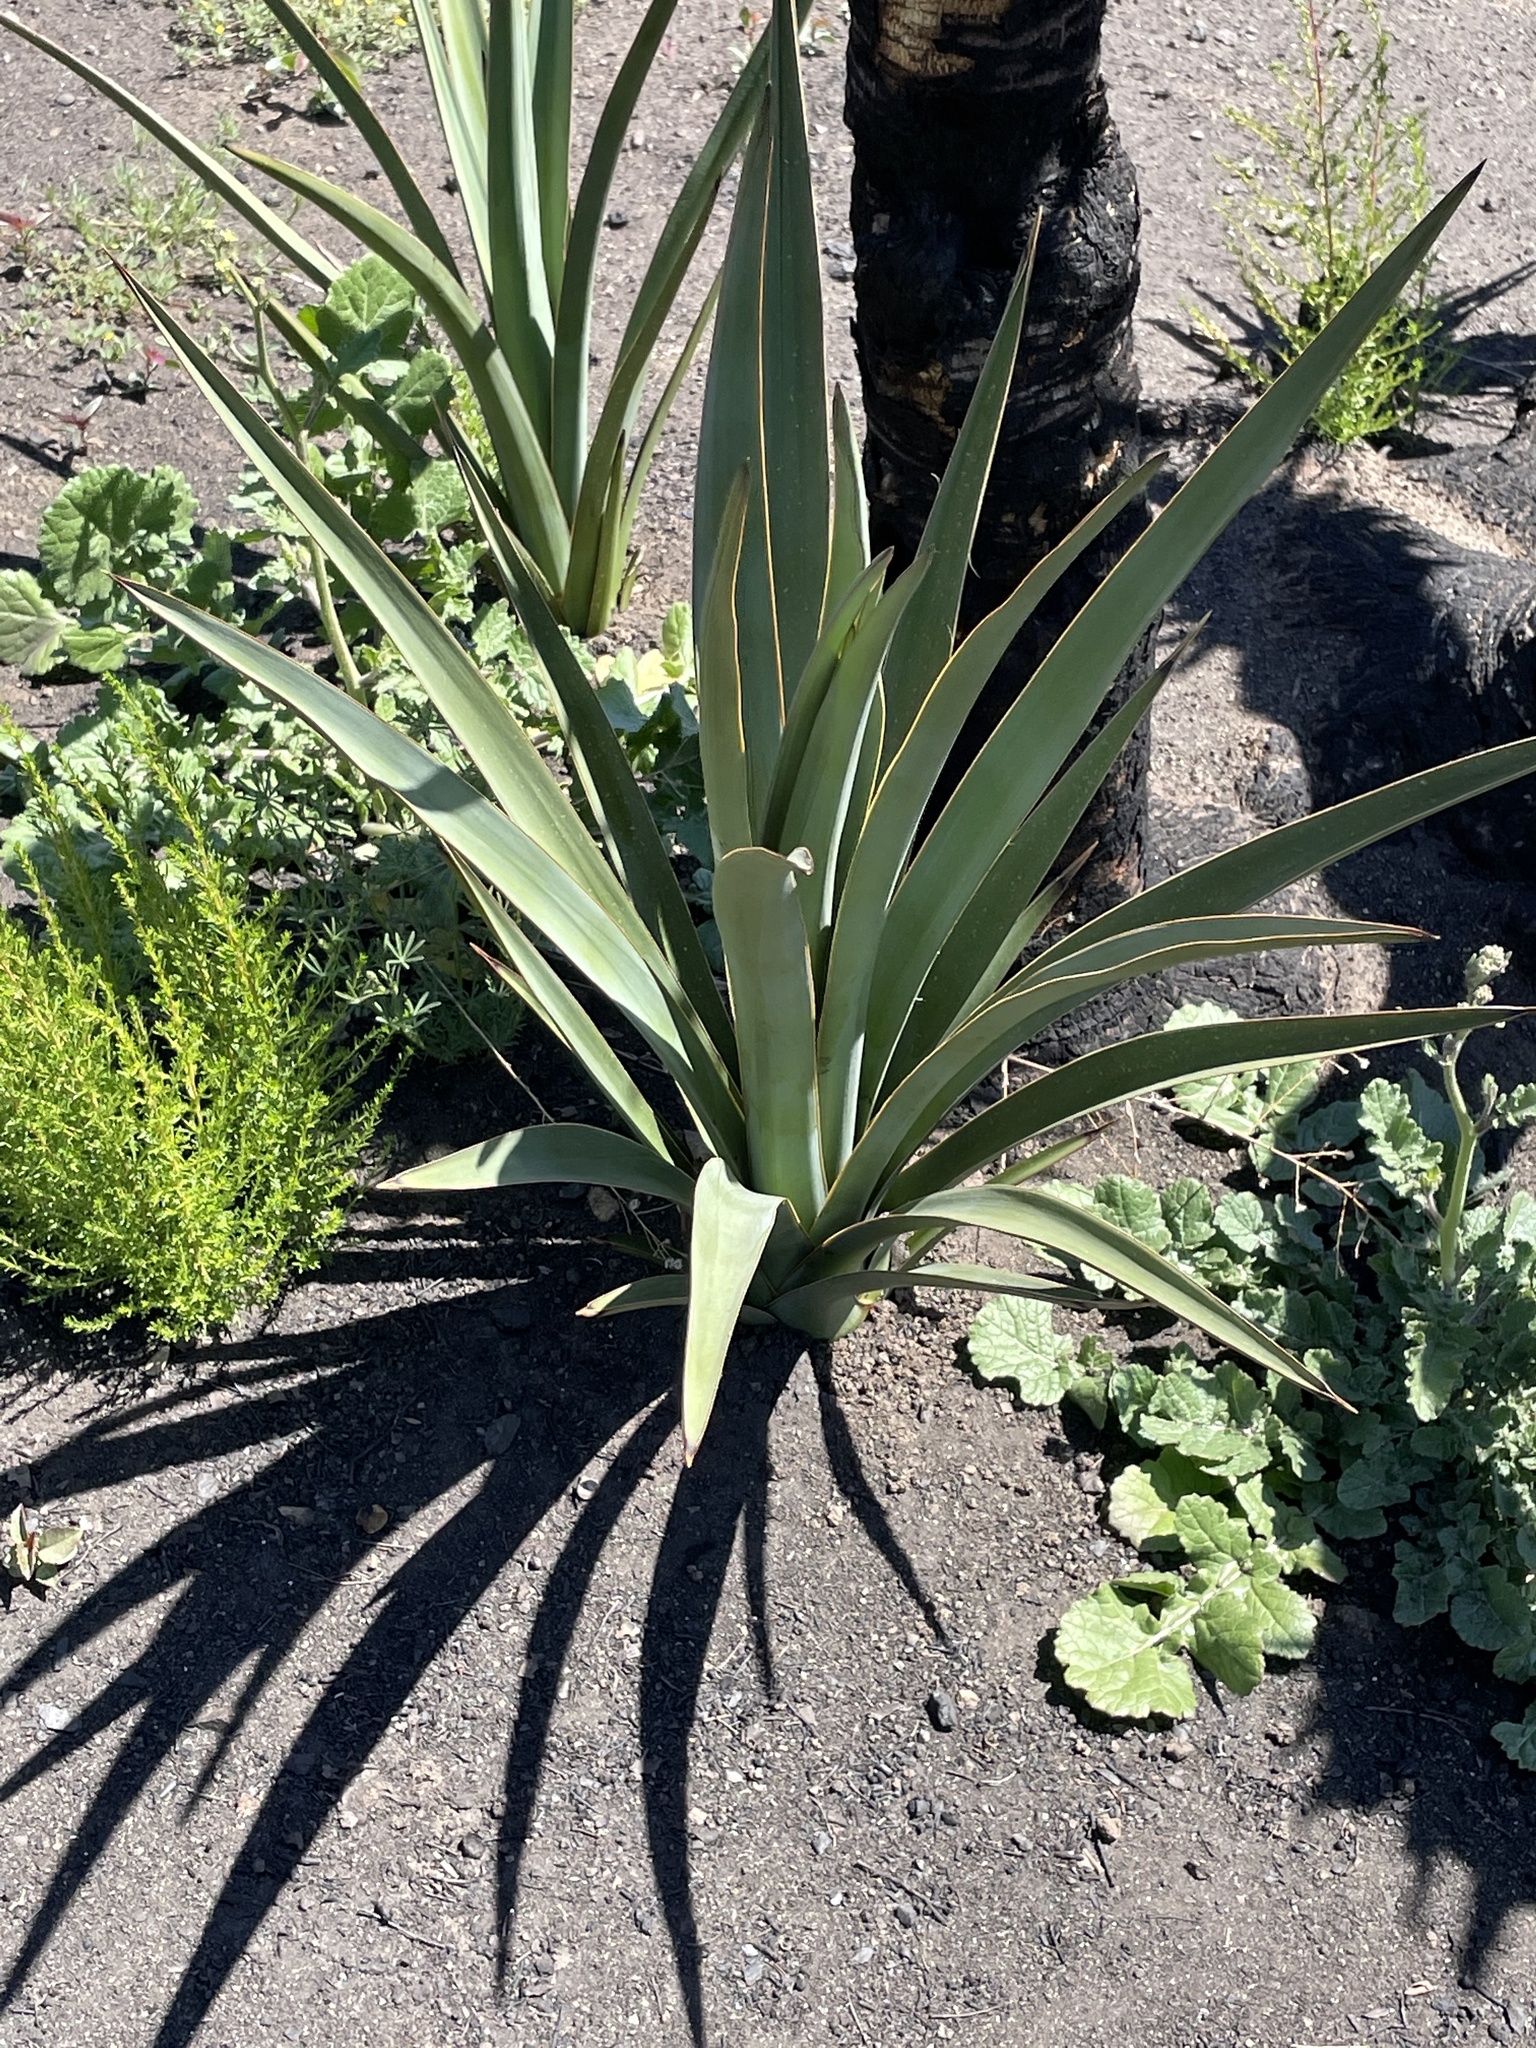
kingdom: Plantae
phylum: Tracheophyta
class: Liliopsida
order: Asparagales
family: Asparagaceae
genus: Yucca
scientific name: Yucca schidigera
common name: Mojave yucca
